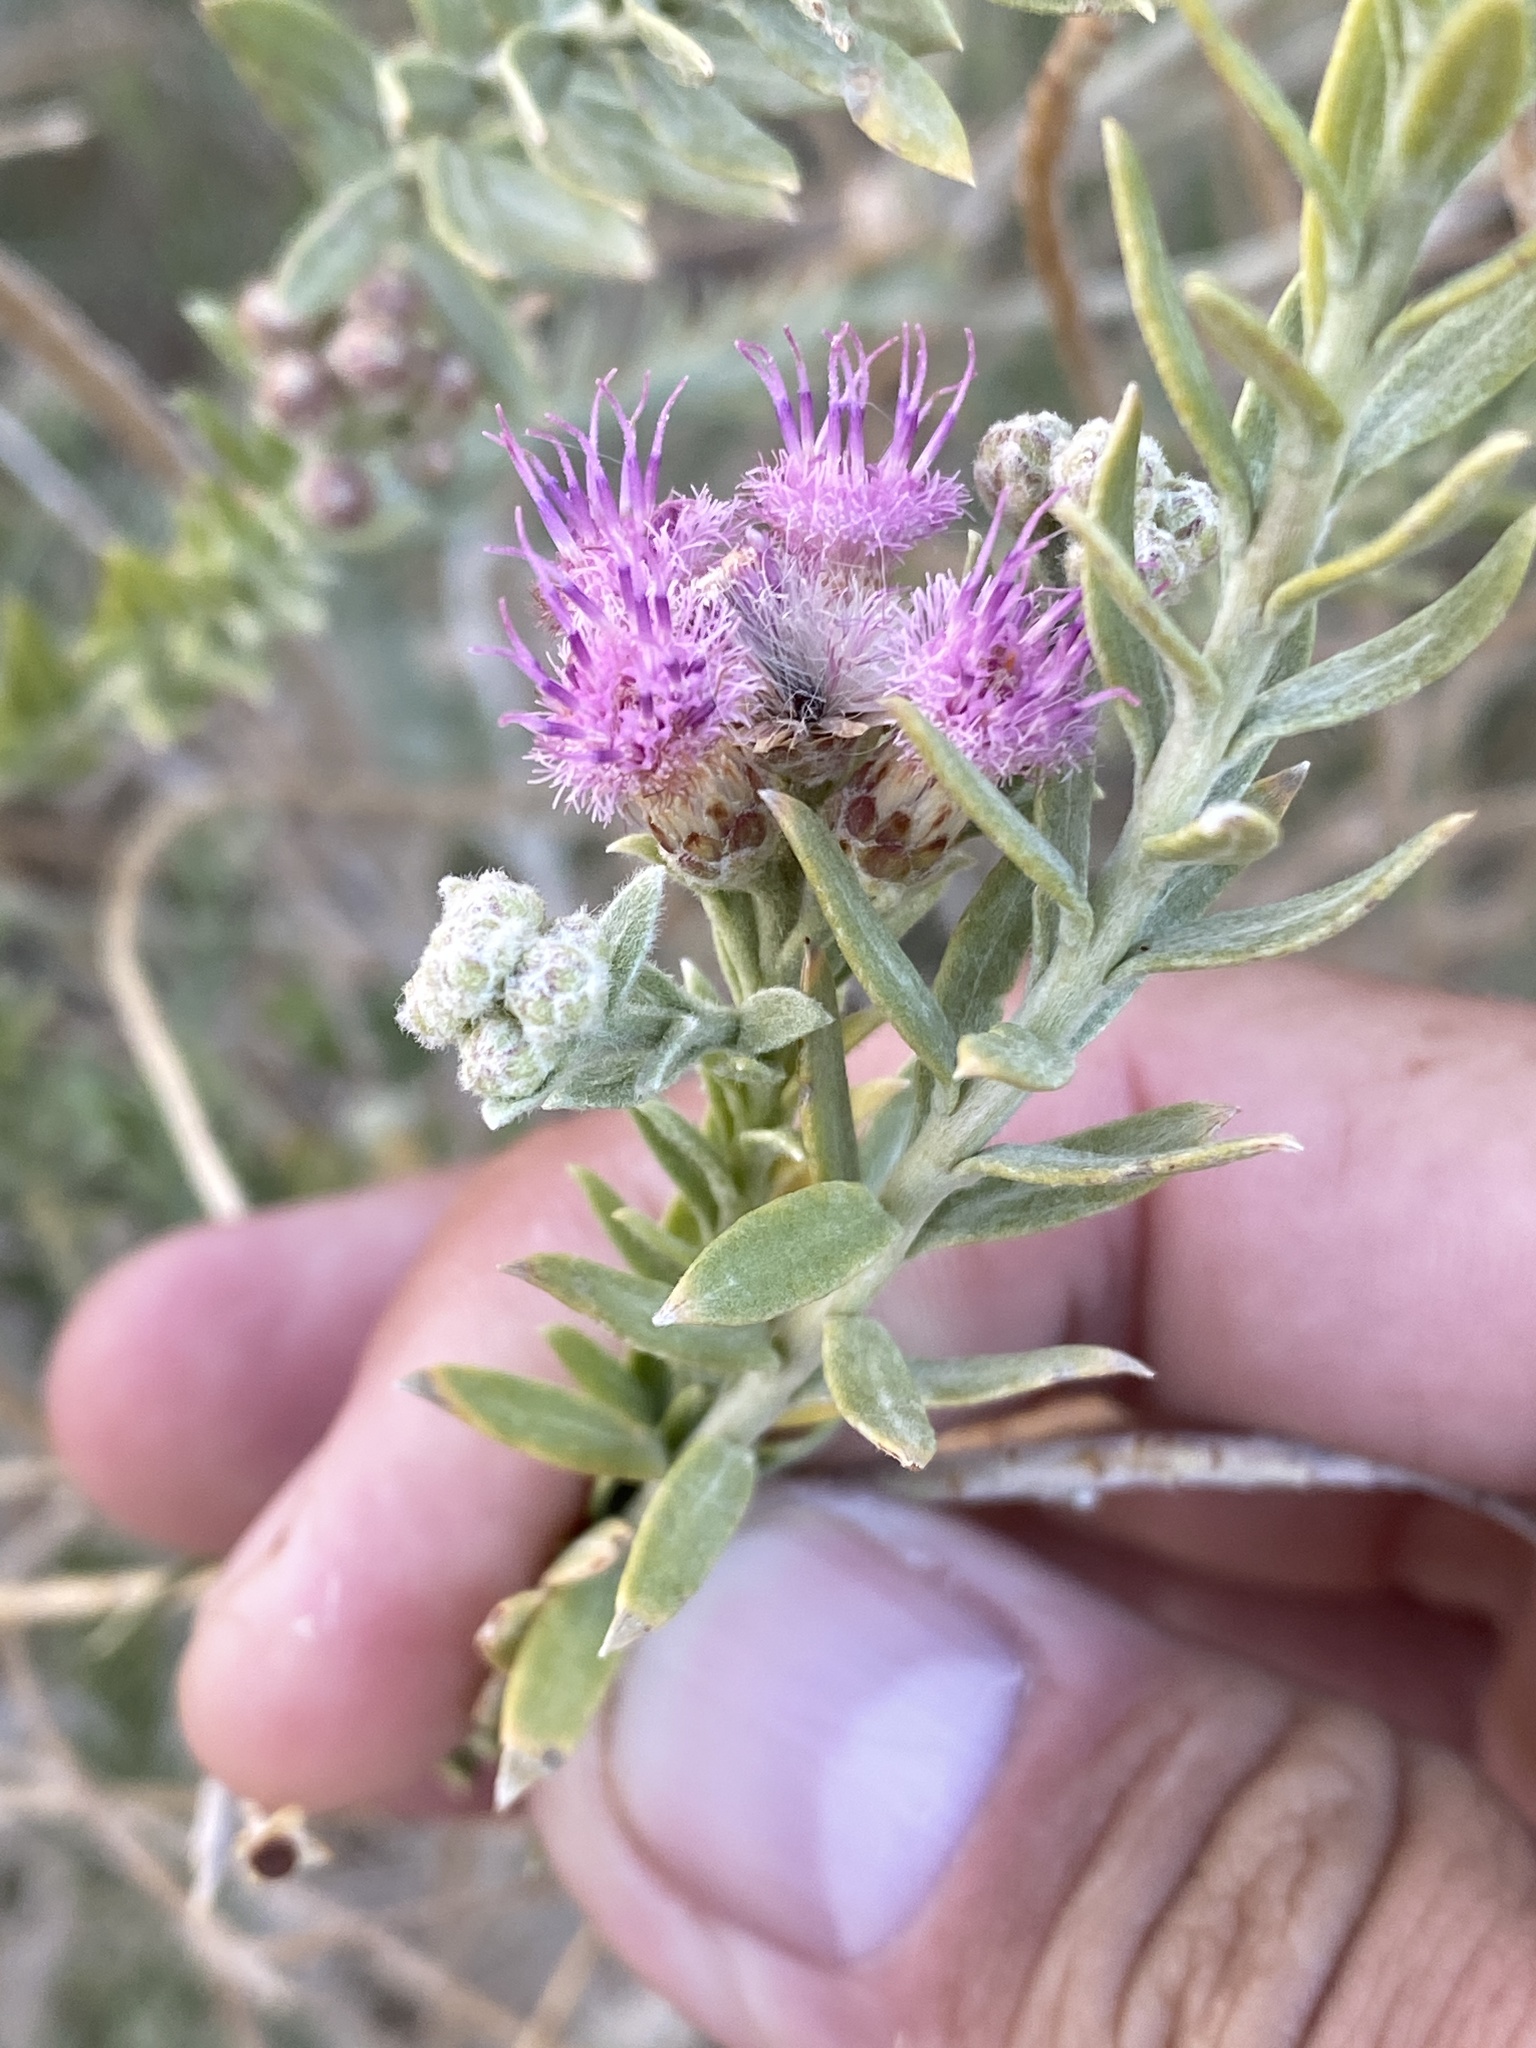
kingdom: Plantae
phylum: Tracheophyta
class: Magnoliopsida
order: Asterales
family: Asteraceae
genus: Pluchea
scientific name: Pluchea sericea
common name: Arrow-weed
